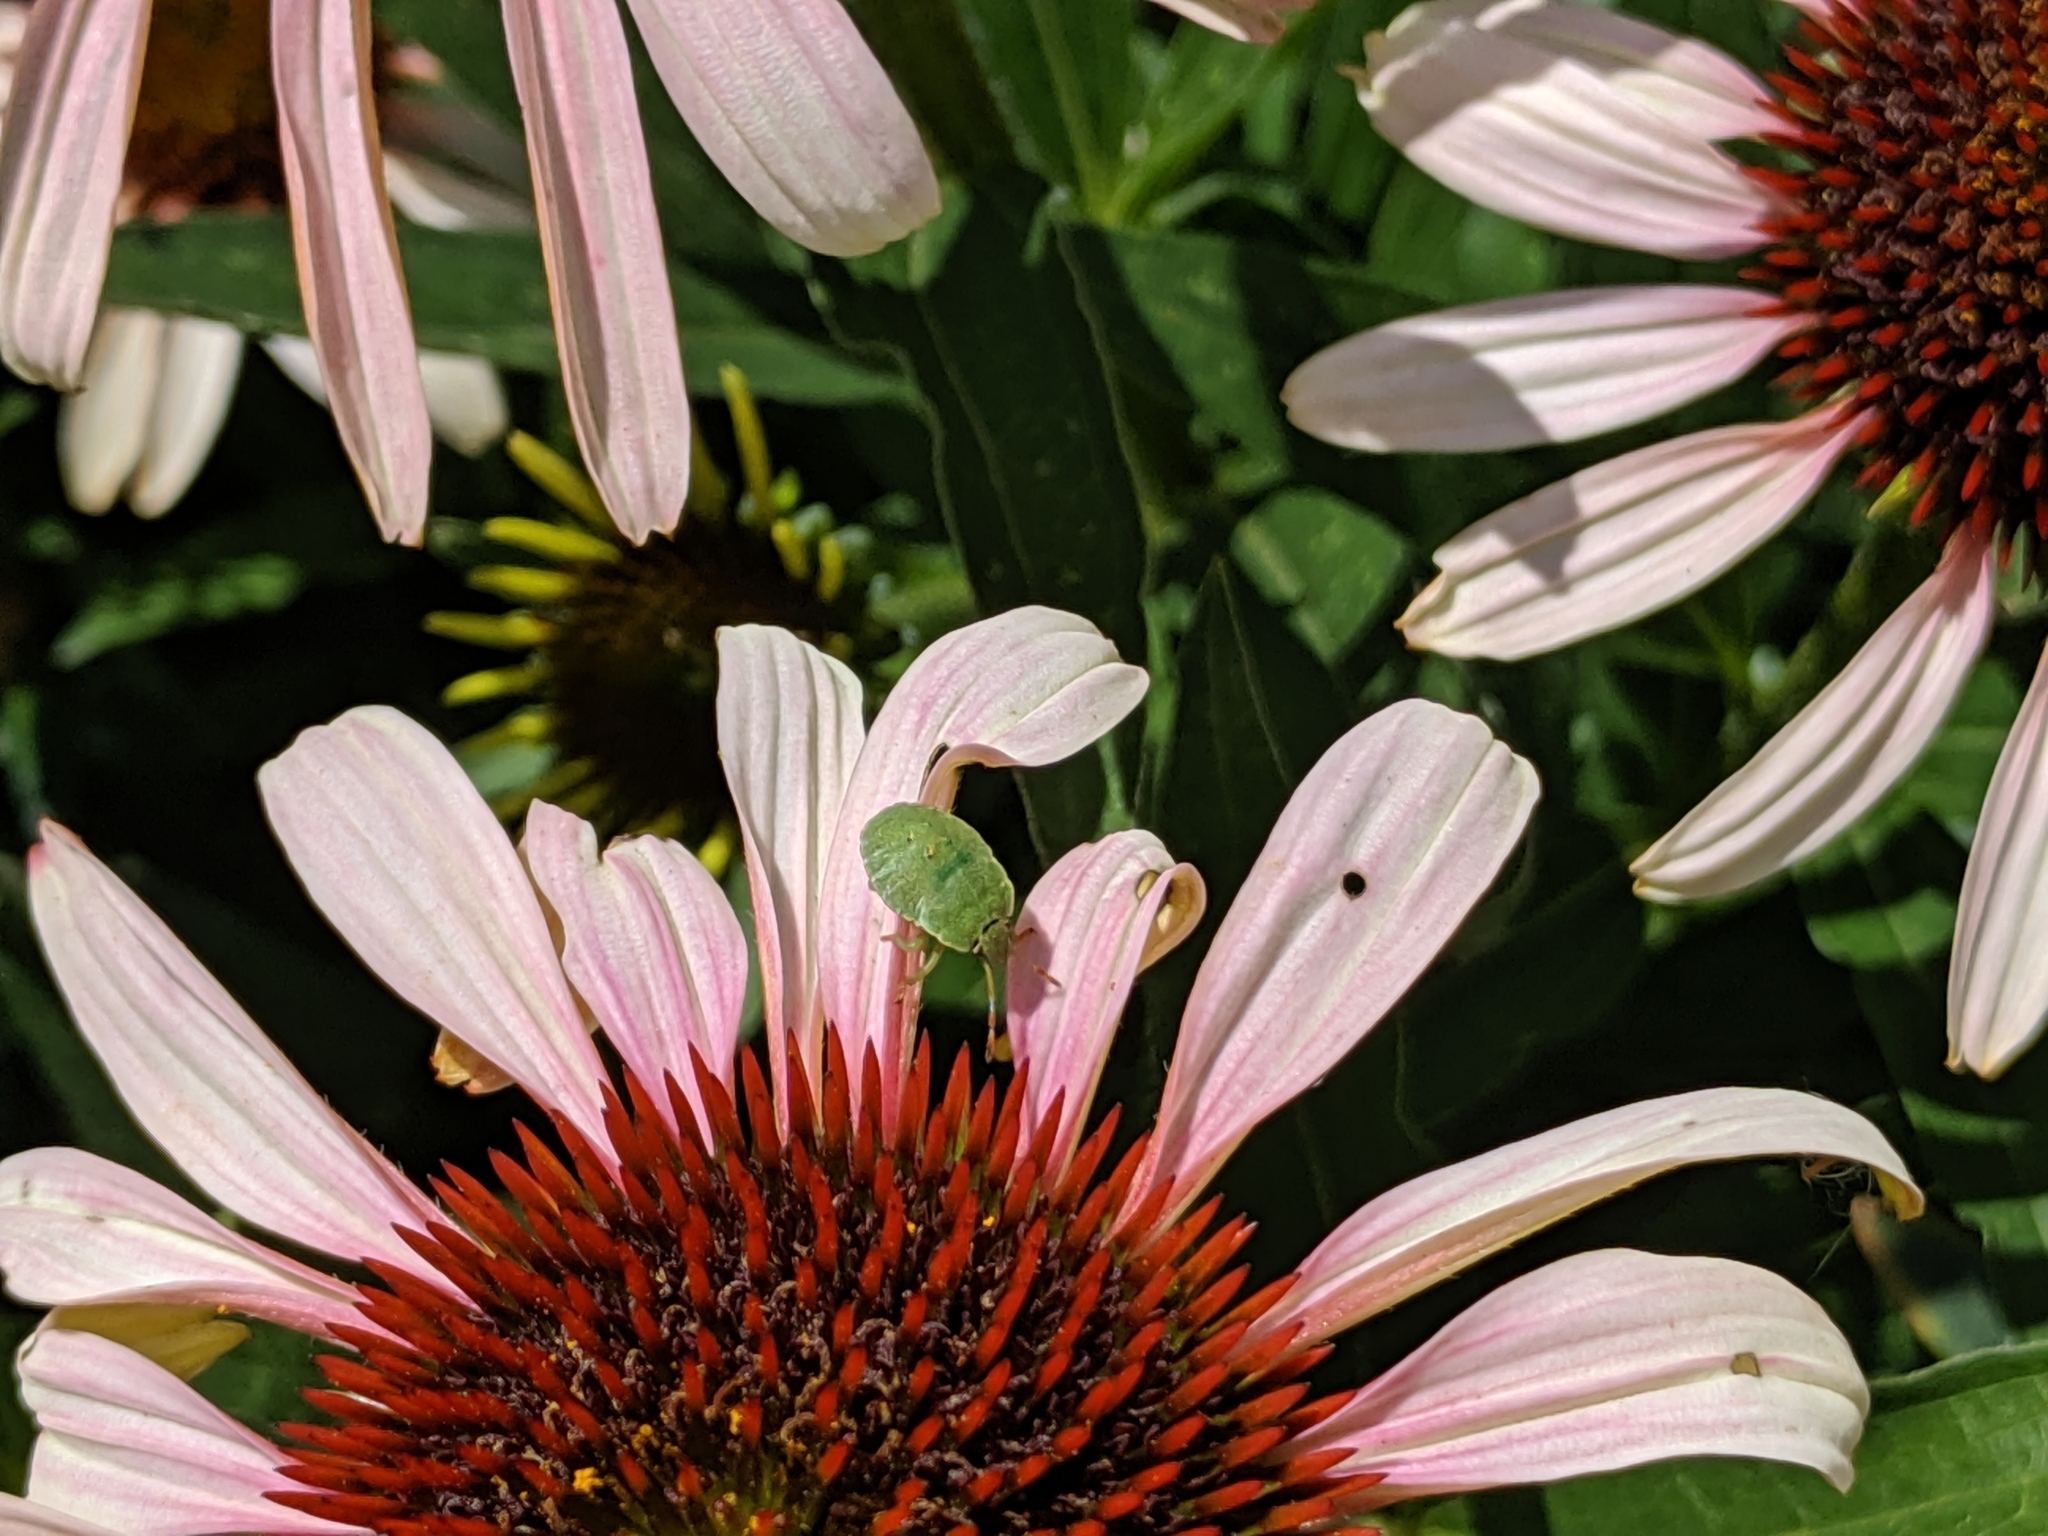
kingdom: Animalia
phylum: Arthropoda
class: Insecta
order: Hemiptera
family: Pentatomidae
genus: Palomena
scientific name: Palomena prasina
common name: Green shieldbug
